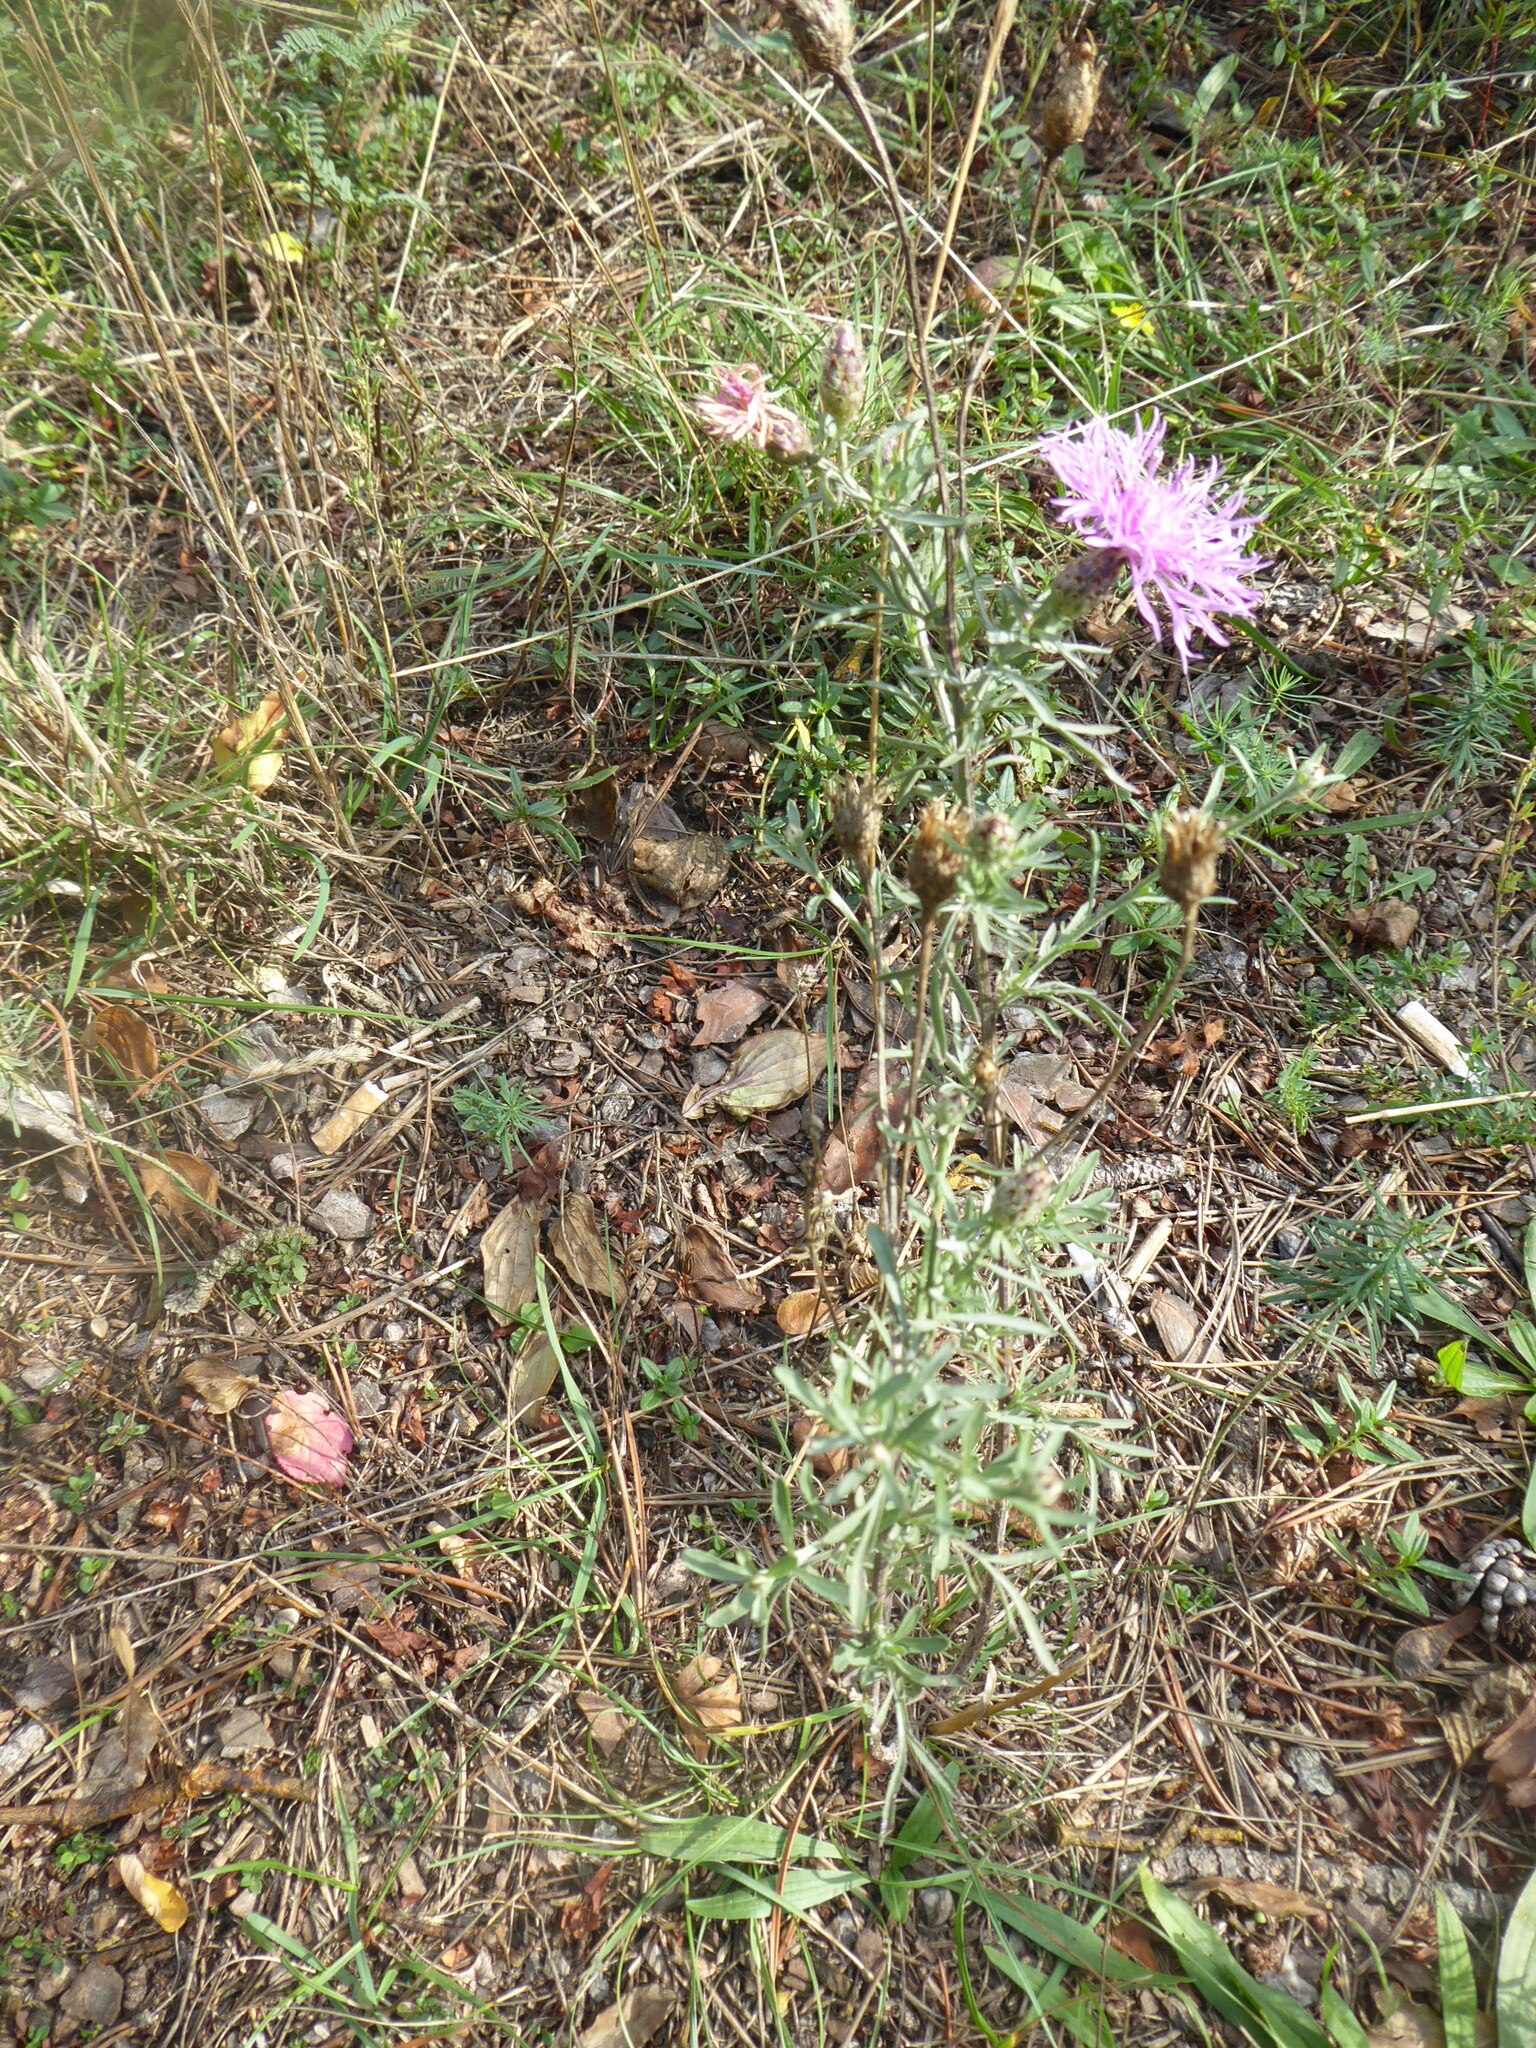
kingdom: Plantae
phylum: Tracheophyta
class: Magnoliopsida
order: Asterales
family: Asteraceae
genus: Centaurea
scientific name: Centaurea stoebe
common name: Spotted knapweed
